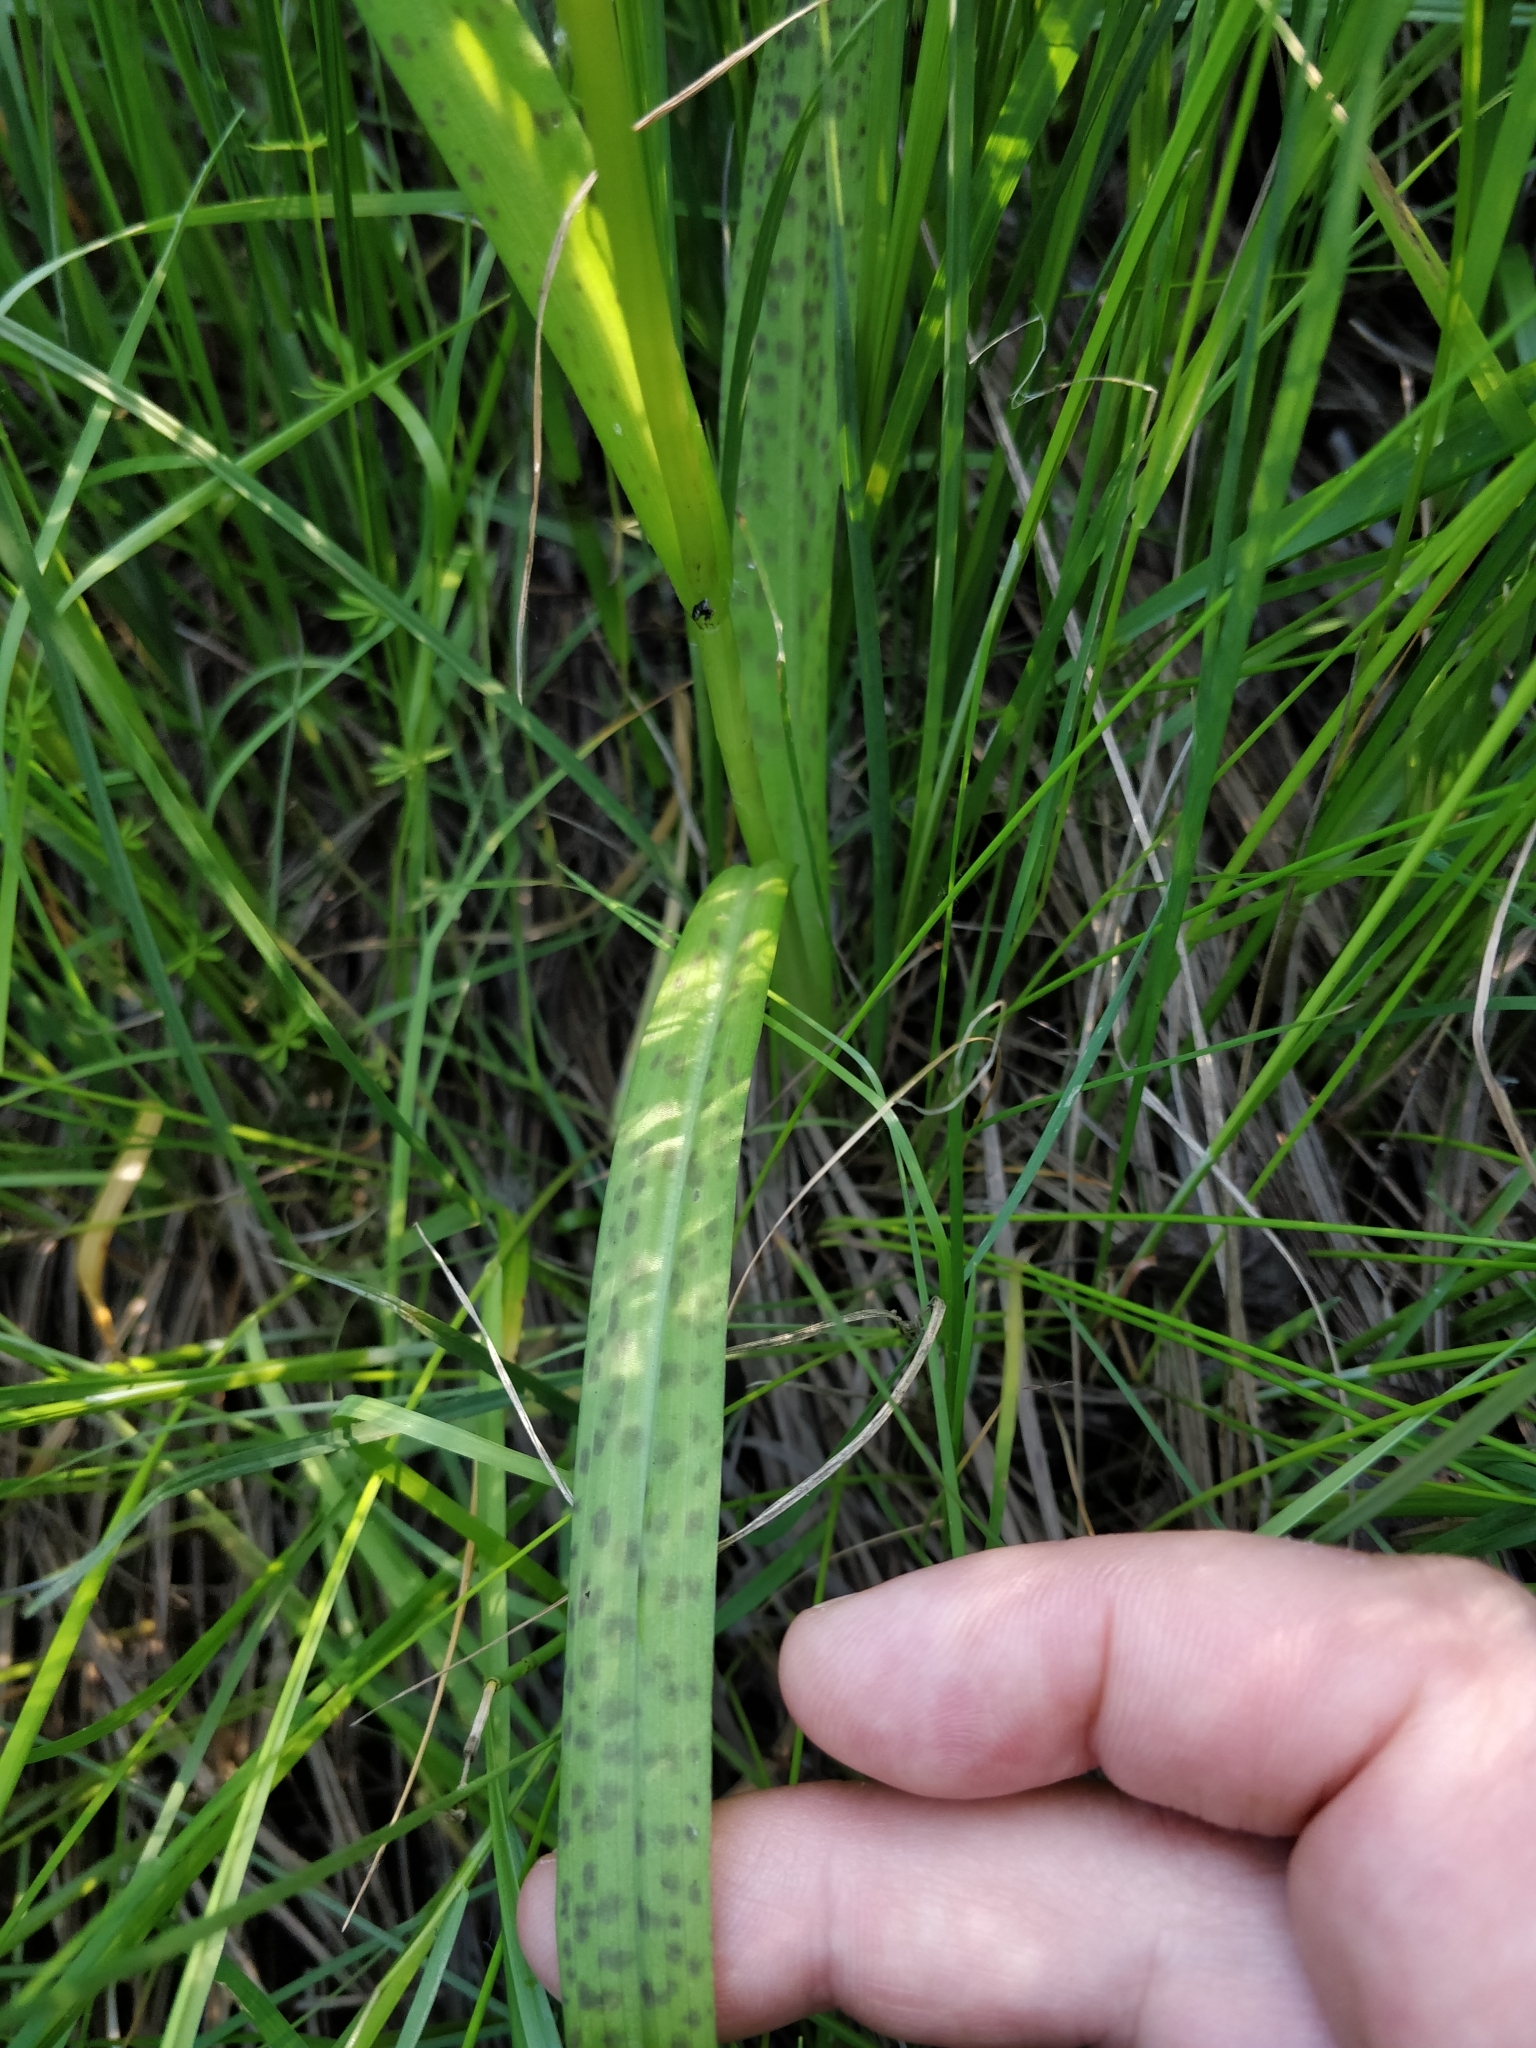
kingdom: Plantae
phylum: Tracheophyta
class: Liliopsida
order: Asparagales
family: Orchidaceae
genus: Dactylorhiza
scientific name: Dactylorhiza majalis
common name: Marsh orchid
